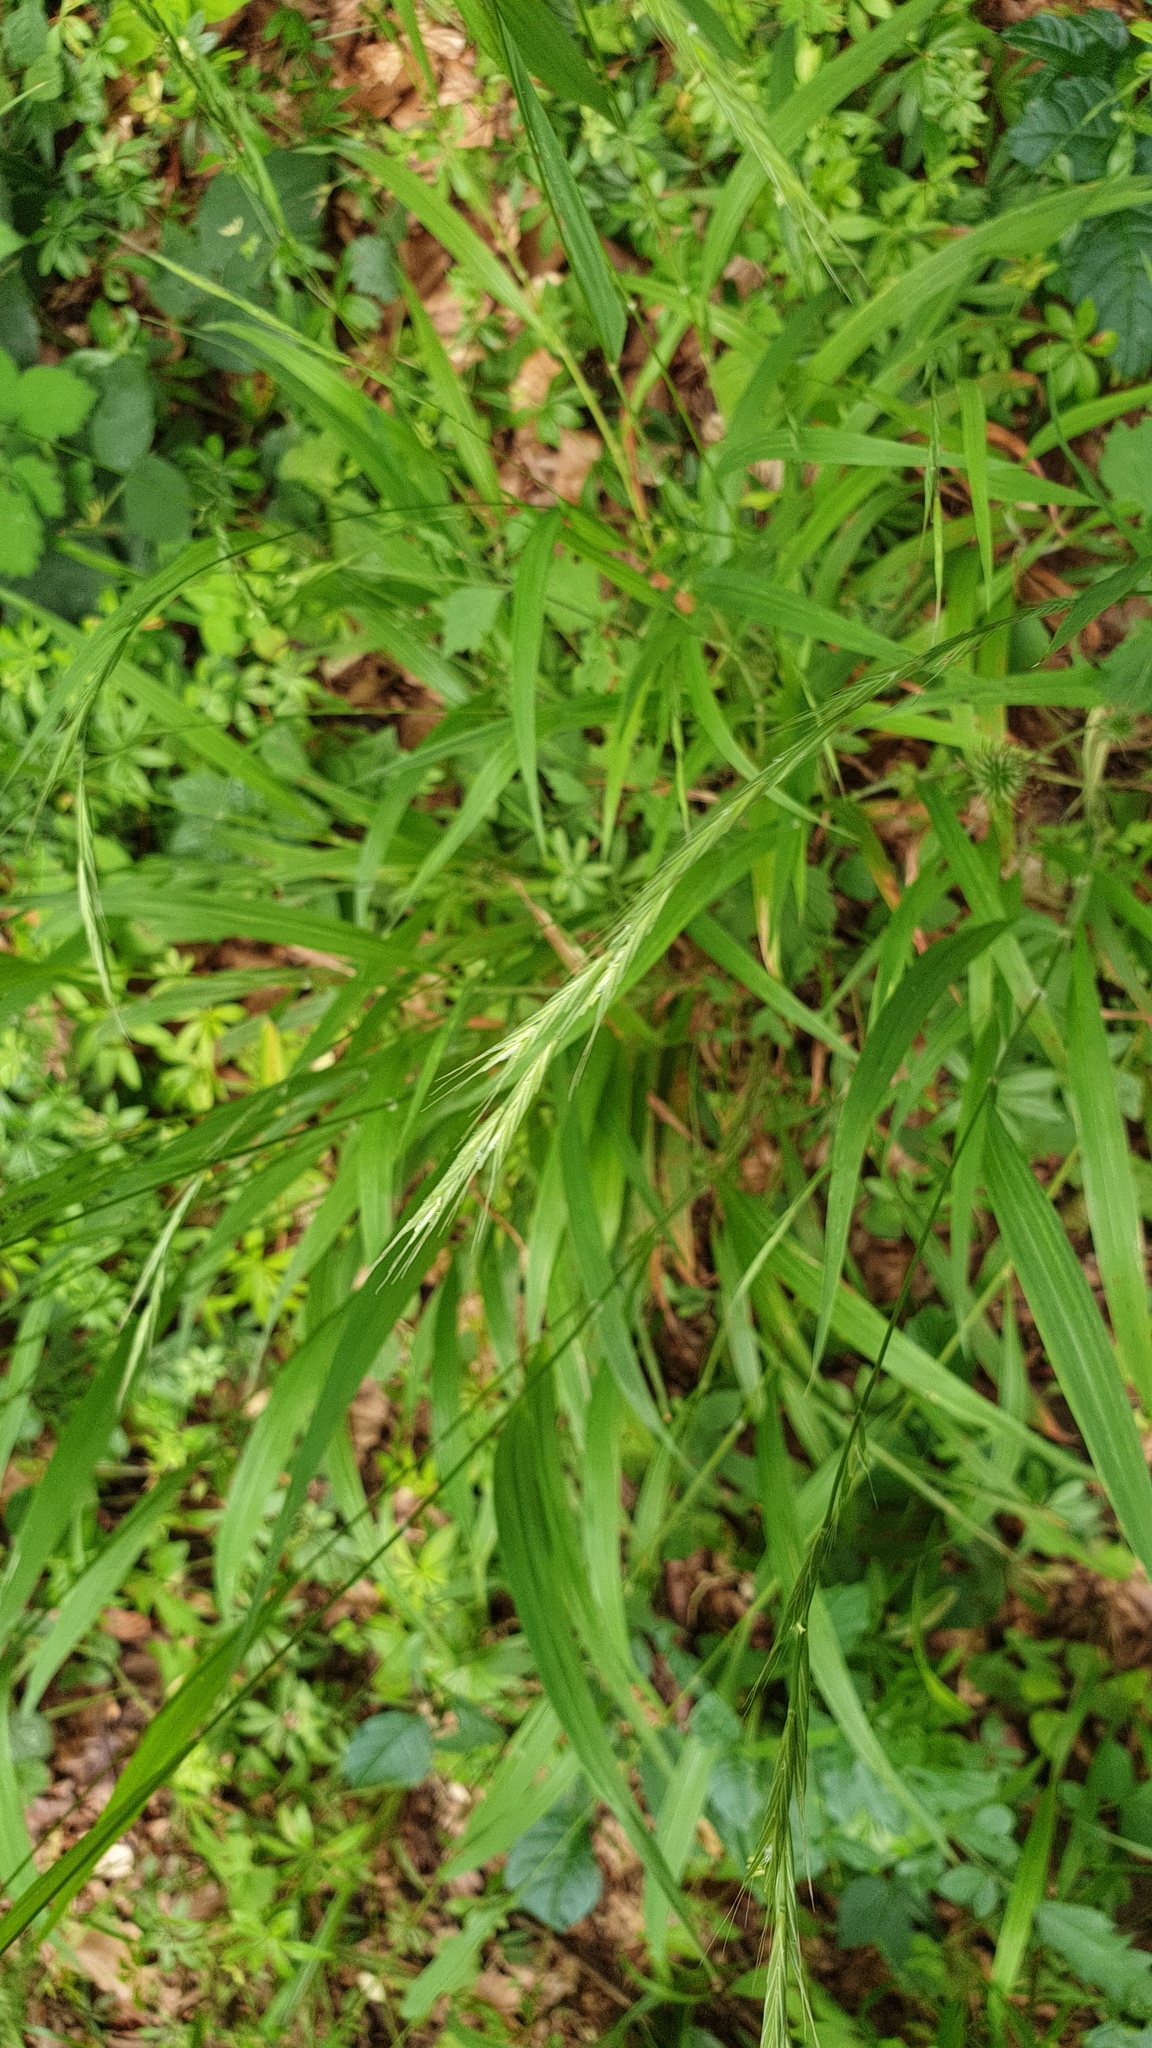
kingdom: Plantae
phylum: Tracheophyta
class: Liliopsida
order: Poales
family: Poaceae
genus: Brachypodium
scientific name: Brachypodium sylvaticum
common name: False-brome
